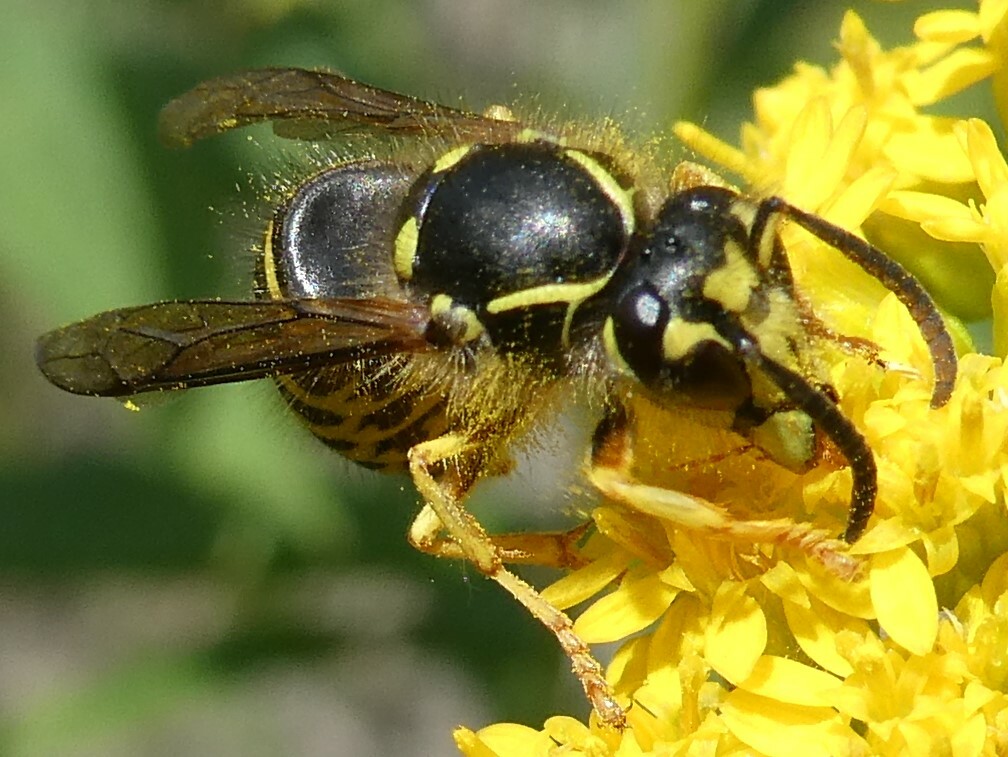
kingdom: Animalia
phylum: Arthropoda
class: Insecta
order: Hymenoptera
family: Vespidae
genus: Dolichovespula
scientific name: Dolichovespula arenaria
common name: Aerial yellowjacket
